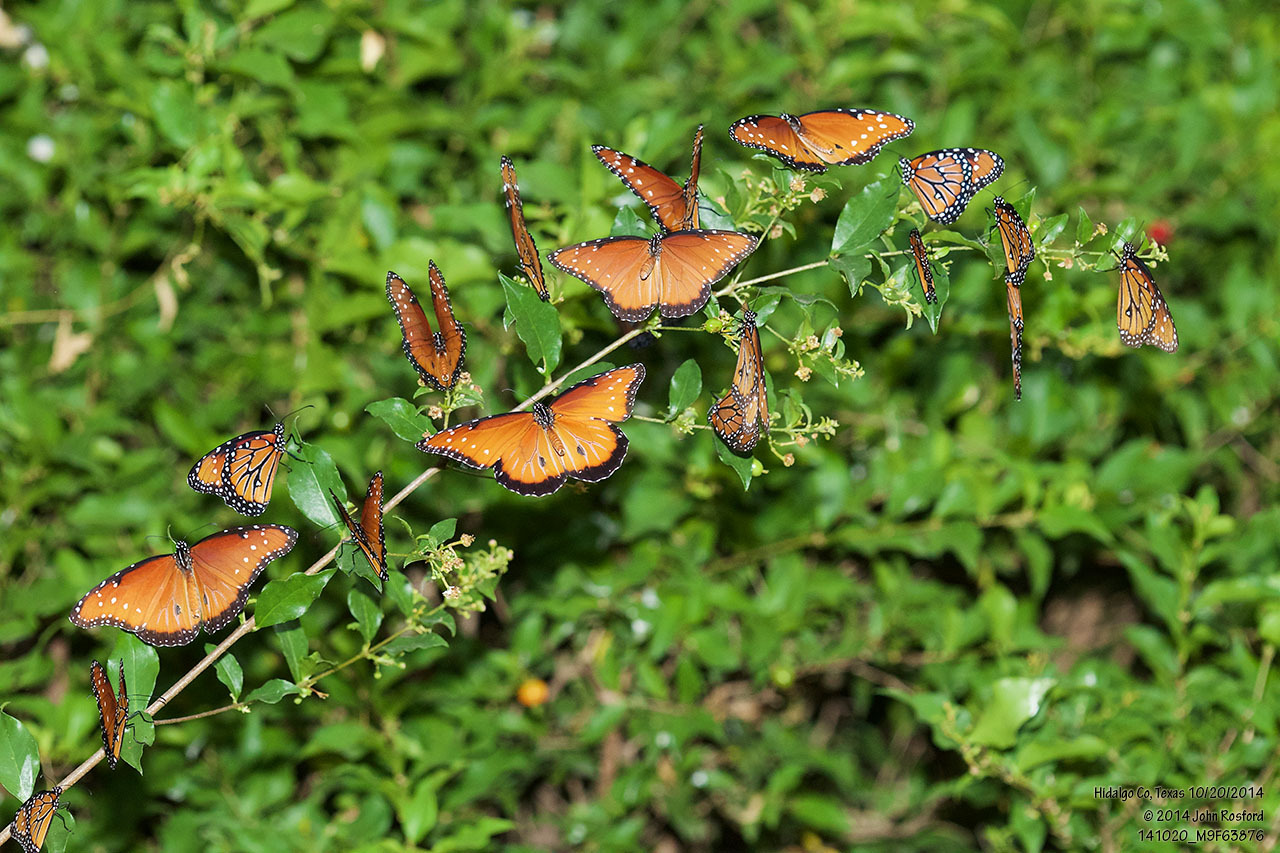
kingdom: Animalia
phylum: Arthropoda
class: Insecta
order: Lepidoptera
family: Nymphalidae
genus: Danaus
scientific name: Danaus gilippus
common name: Queen
